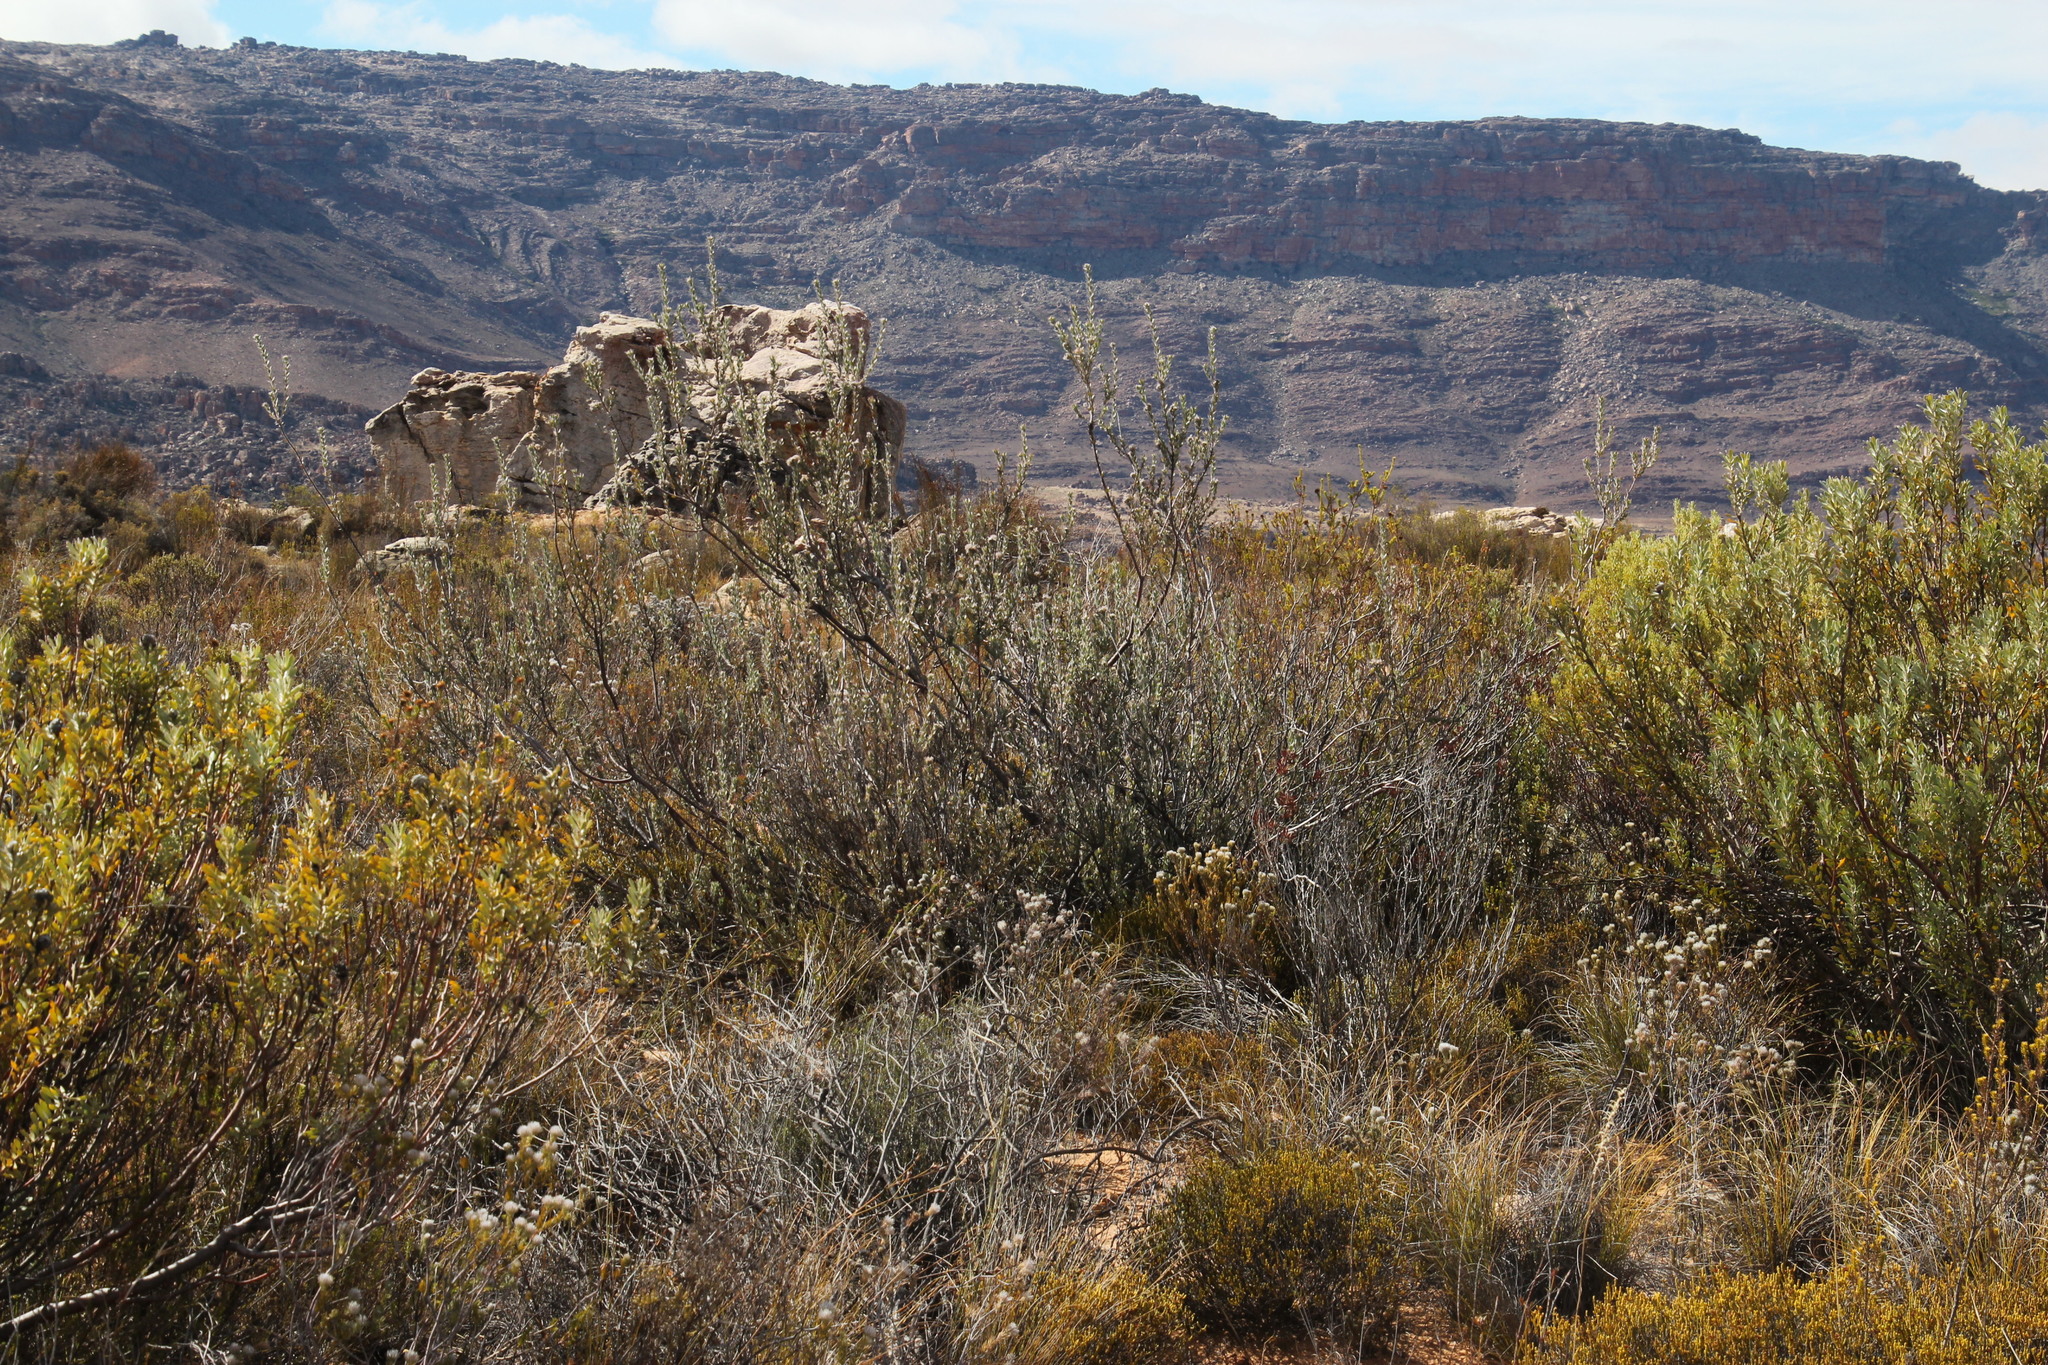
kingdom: Plantae
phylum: Tracheophyta
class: Magnoliopsida
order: Proteales
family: Proteaceae
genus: Leucospermum
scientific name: Leucospermum calligerum
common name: Arid pincushion
